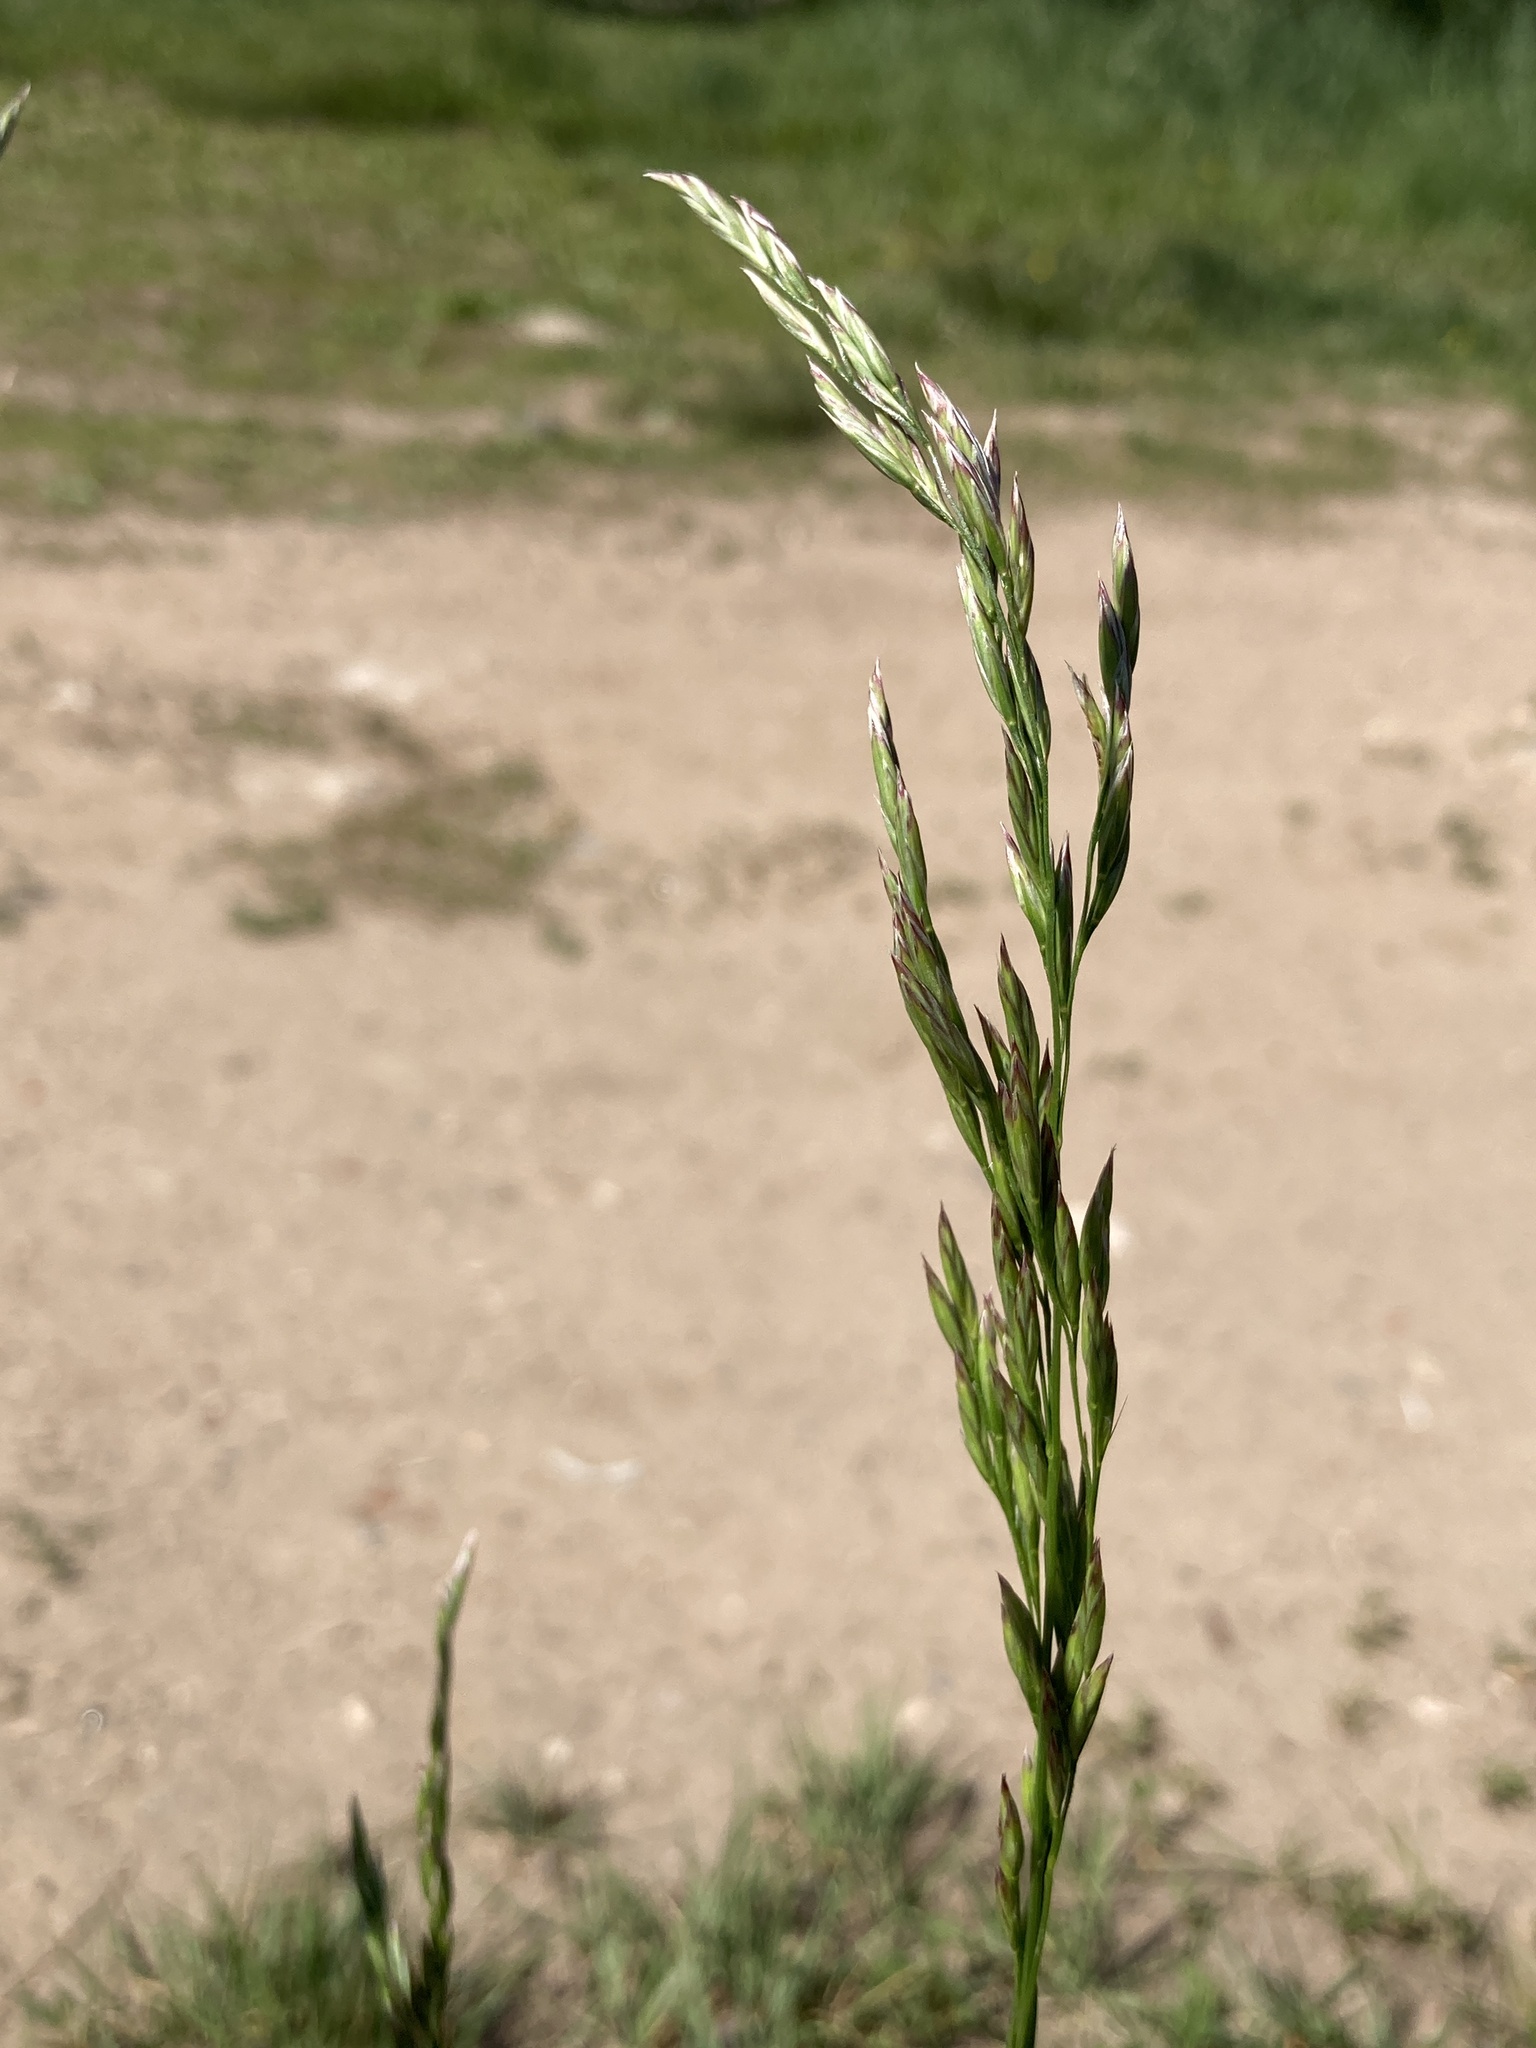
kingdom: Plantae
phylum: Tracheophyta
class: Liliopsida
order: Poales
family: Poaceae
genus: Lolium
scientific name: Lolium arundinaceum
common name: Reed fescue
